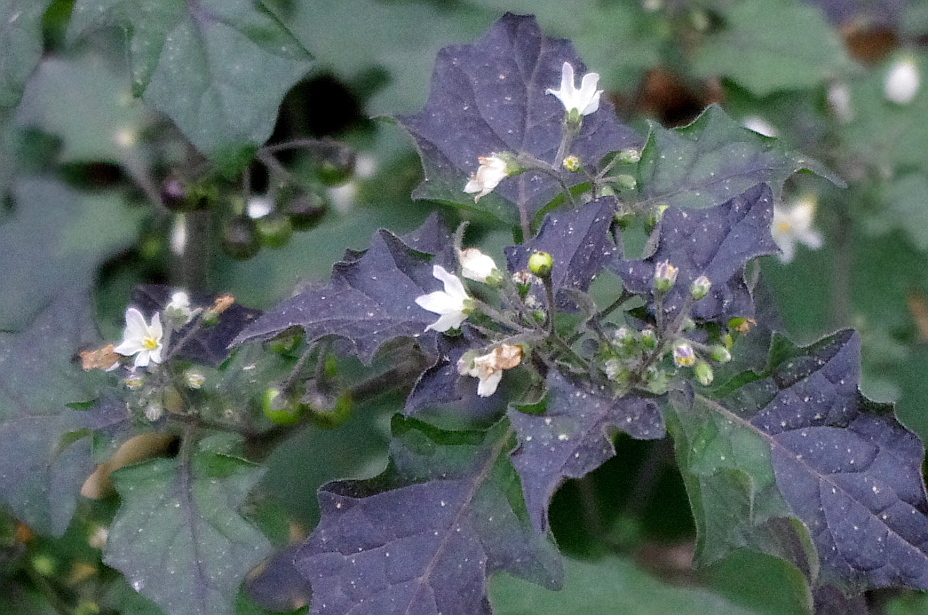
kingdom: Plantae
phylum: Tracheophyta
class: Magnoliopsida
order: Solanales
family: Solanaceae
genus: Solanum
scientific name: Solanum nigrum
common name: Black nightshade
